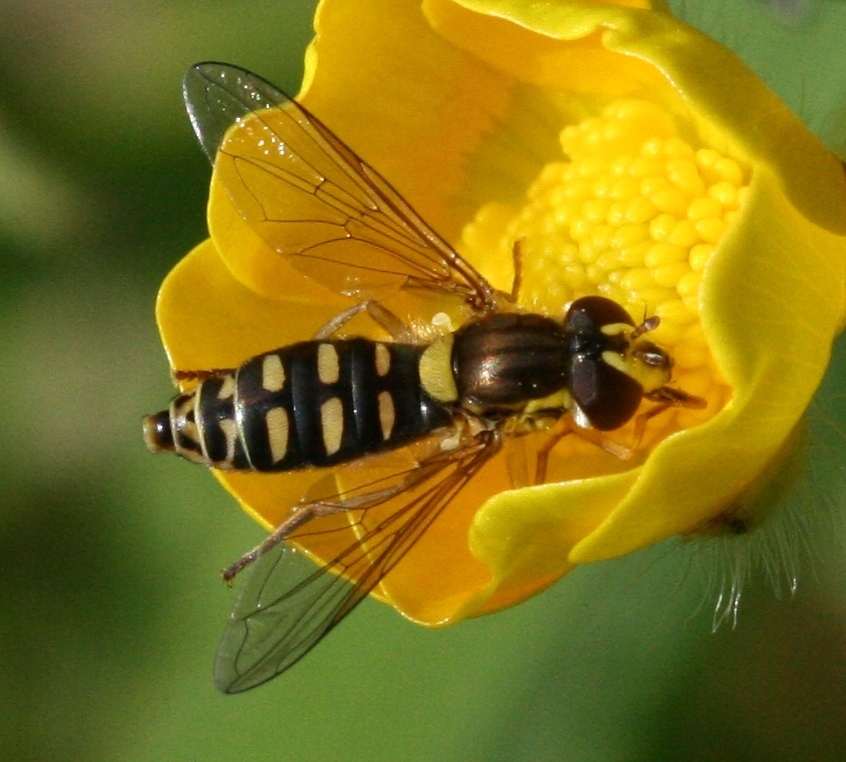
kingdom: Animalia
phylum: Arthropoda
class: Insecta
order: Diptera
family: Syrphidae
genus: Sphaerophoria
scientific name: Sphaerophoria
